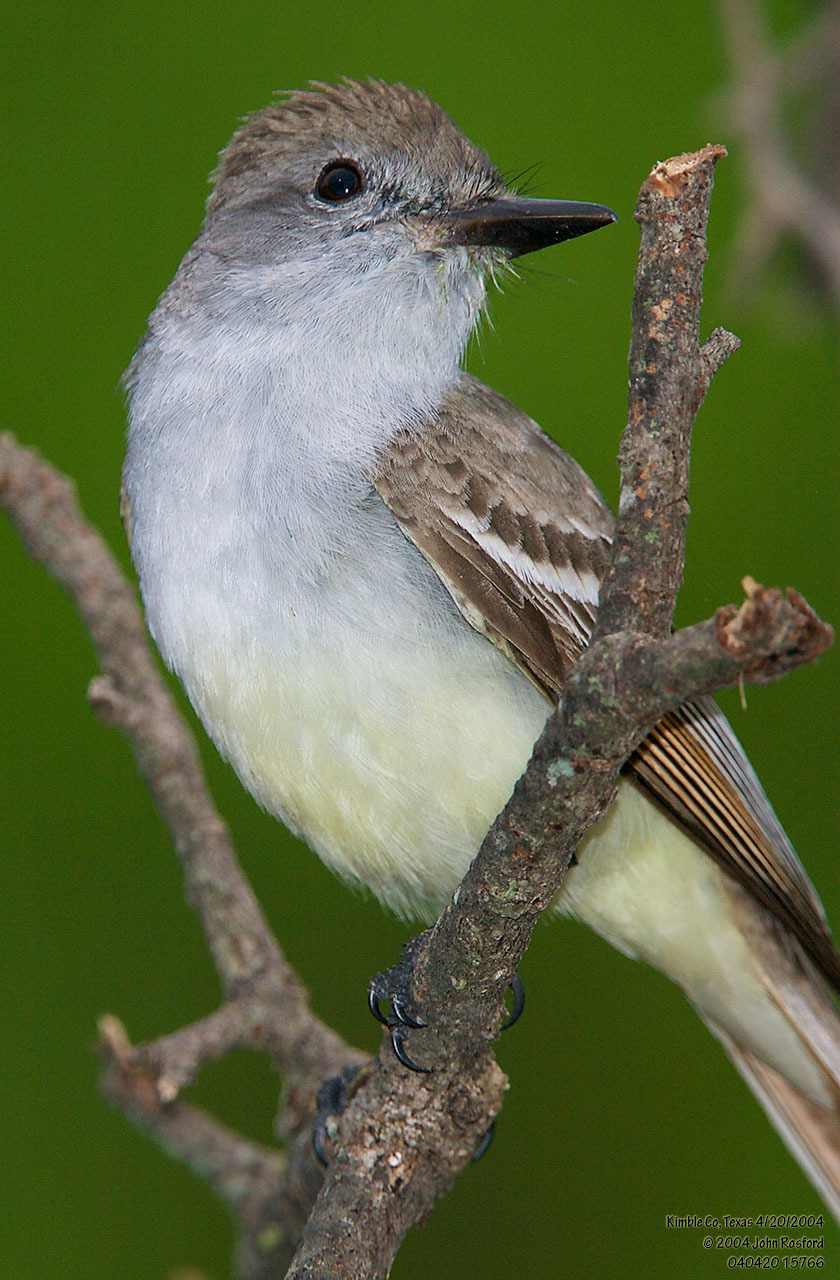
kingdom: Animalia
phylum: Chordata
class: Aves
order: Passeriformes
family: Tyrannidae
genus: Myiarchus
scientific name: Myiarchus cinerascens
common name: Ash-throated flycatcher
